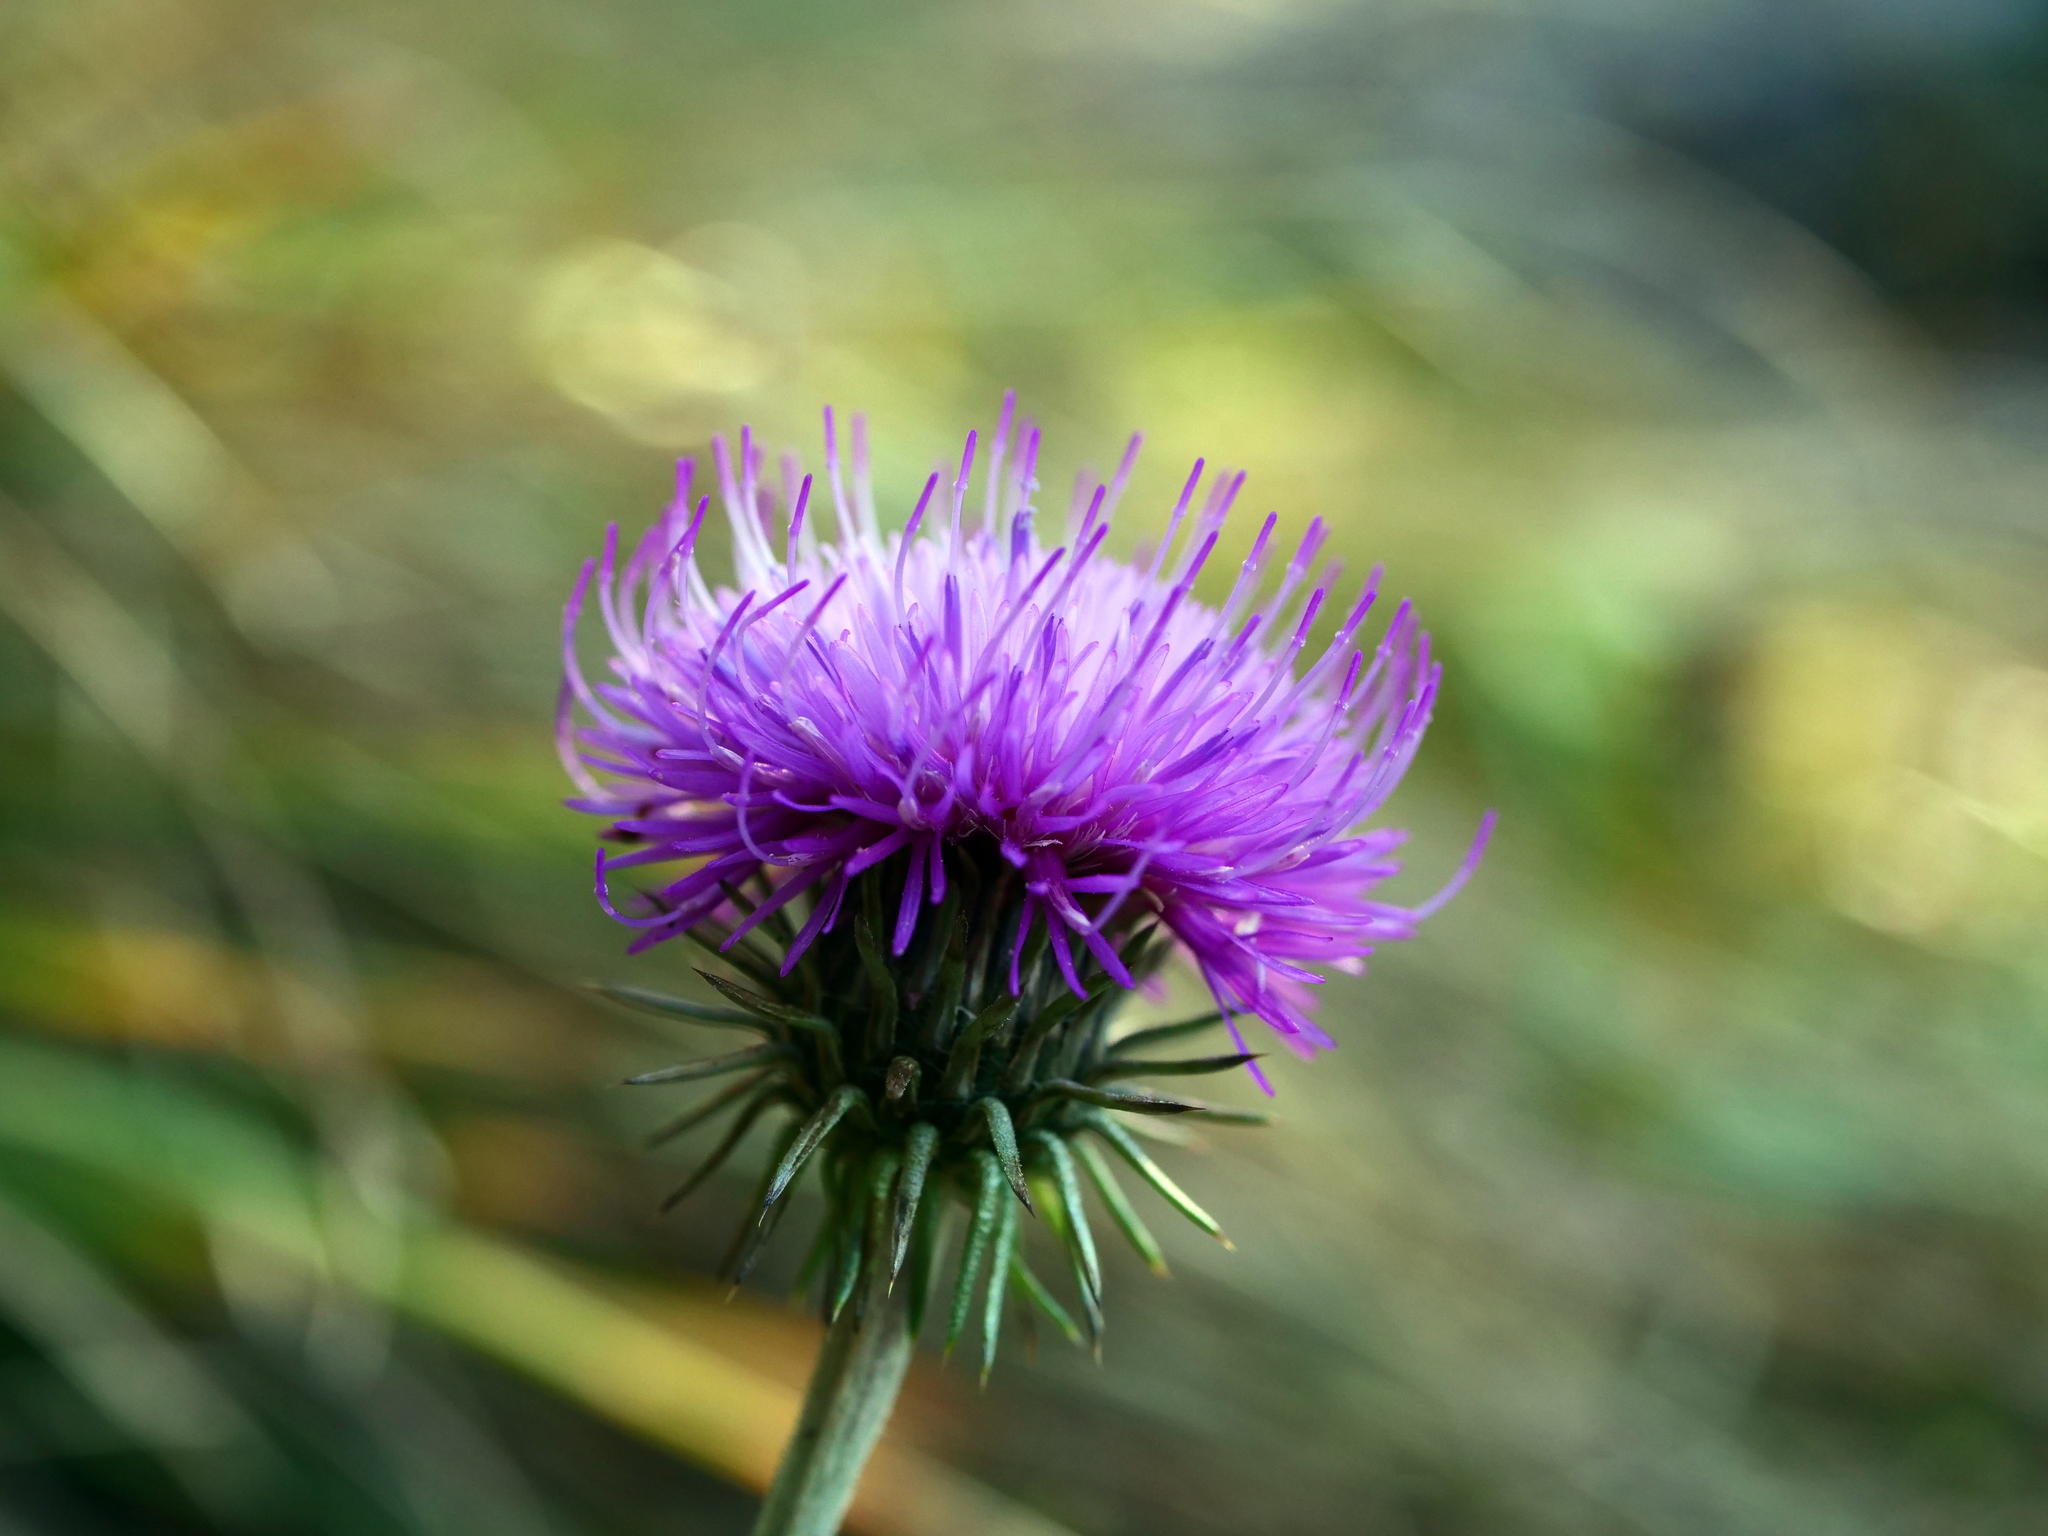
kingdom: Plantae
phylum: Tracheophyta
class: Magnoliopsida
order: Asterales
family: Asteraceae
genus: Carduus
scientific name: Carduus defloratus
